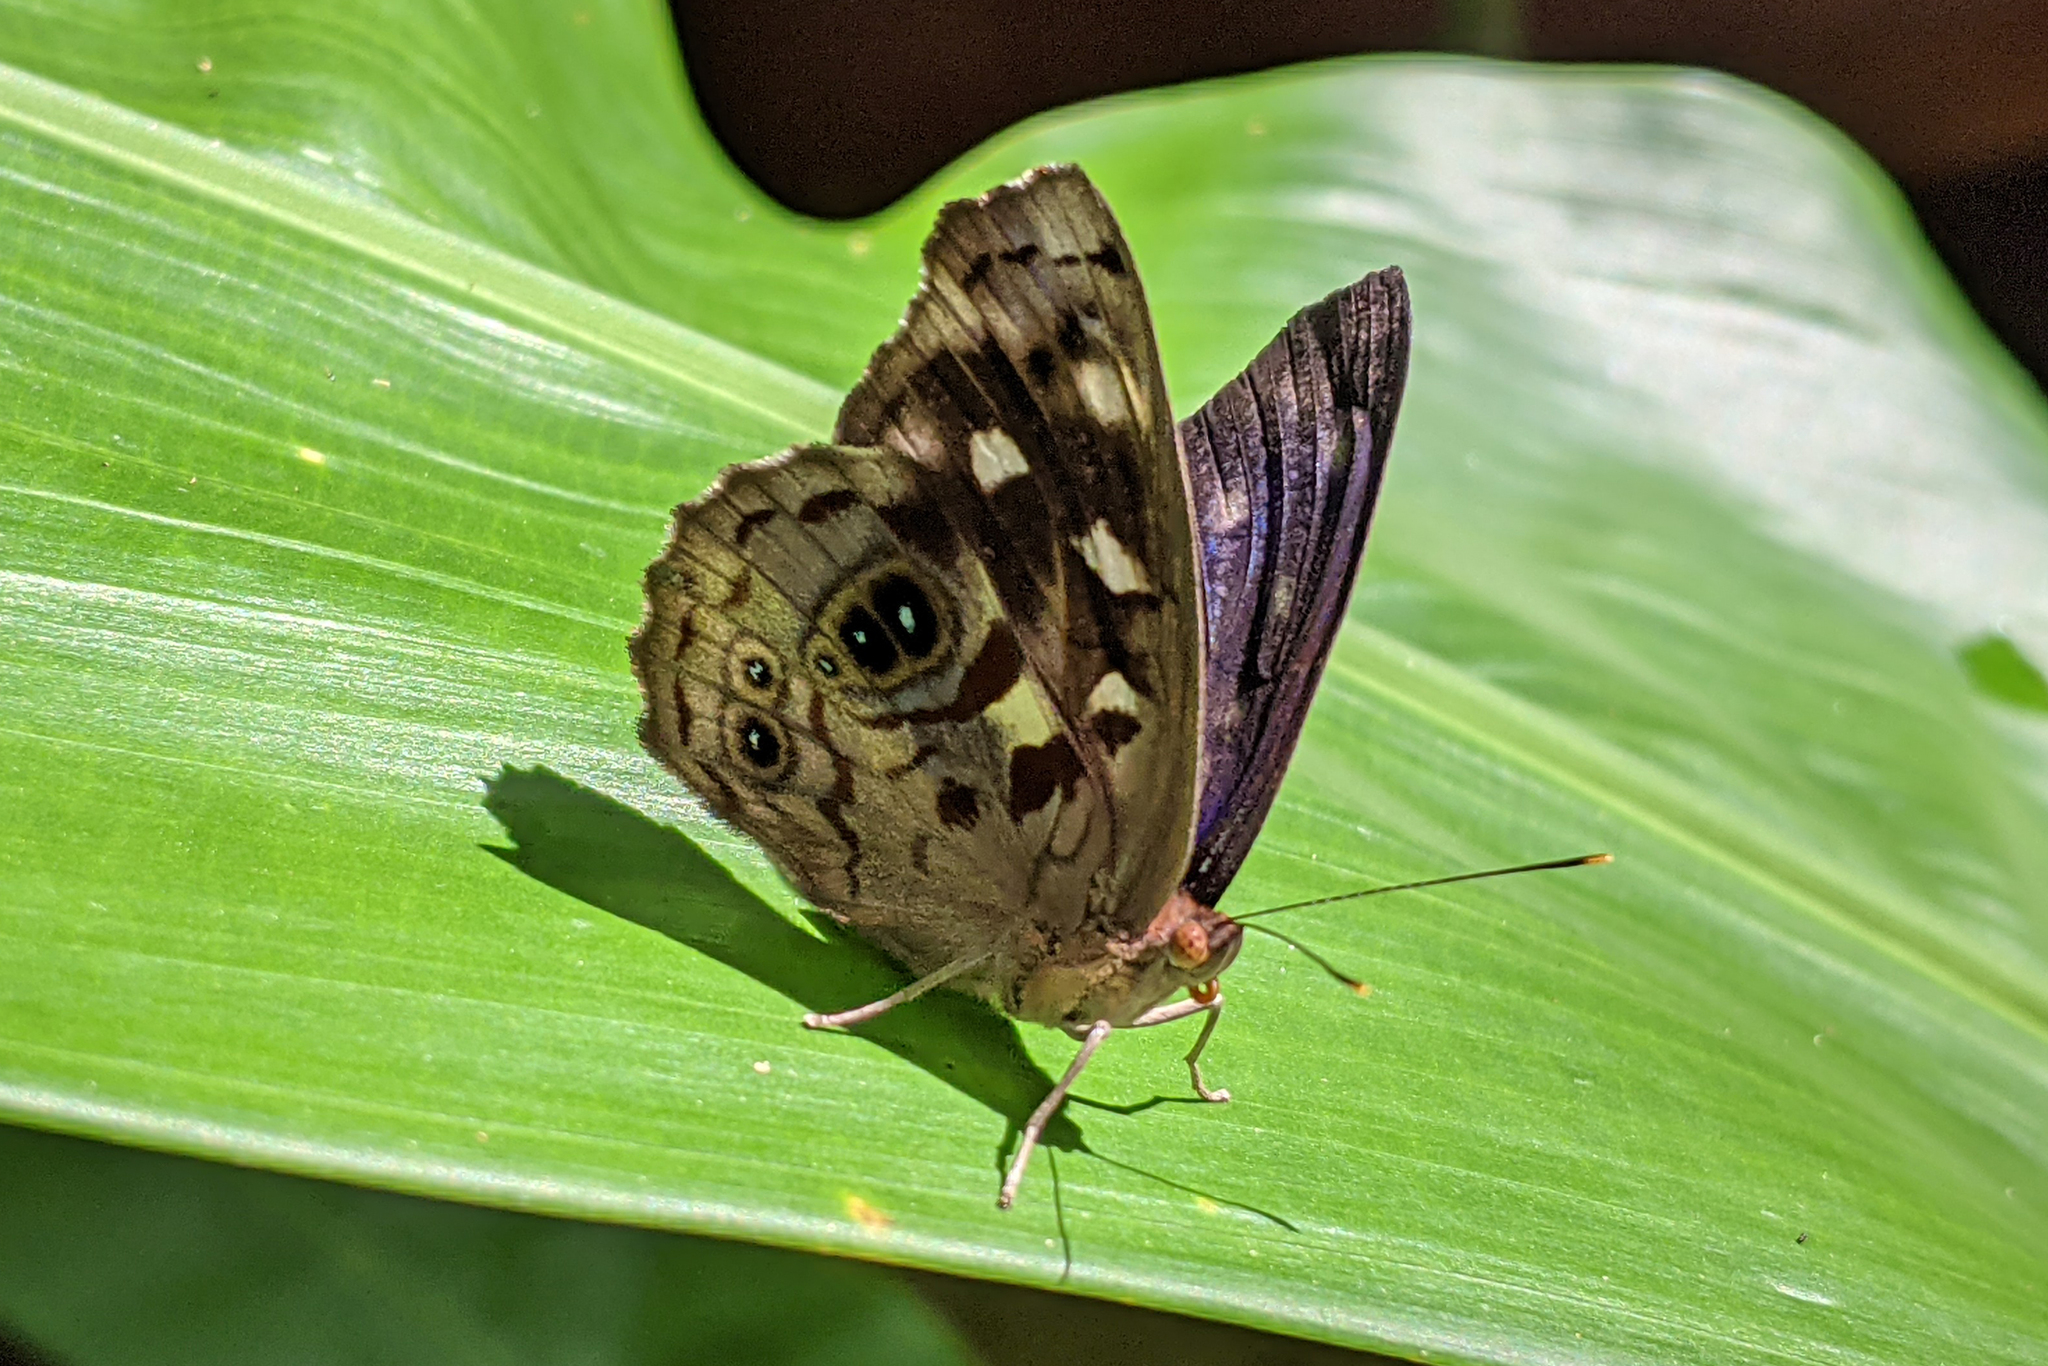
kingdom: Animalia
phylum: Arthropoda
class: Insecta
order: Lepidoptera
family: Nymphalidae
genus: Eunica
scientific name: Eunica concordia
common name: Sandbar purplewing
